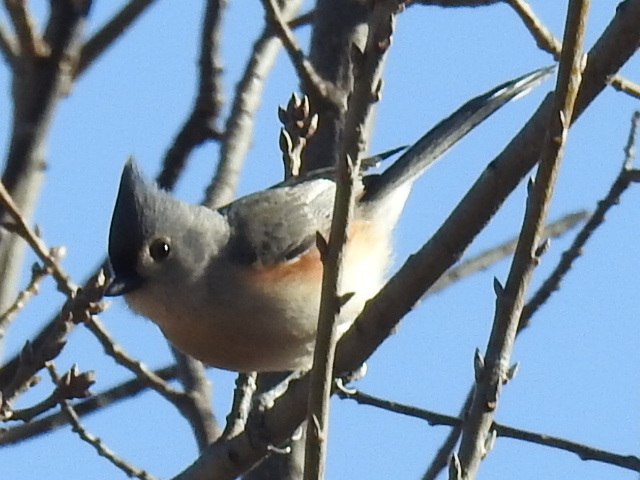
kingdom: Animalia
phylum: Chordata
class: Aves
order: Passeriformes
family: Paridae
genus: Baeolophus
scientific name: Baeolophus bicolor
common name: Tufted titmouse
